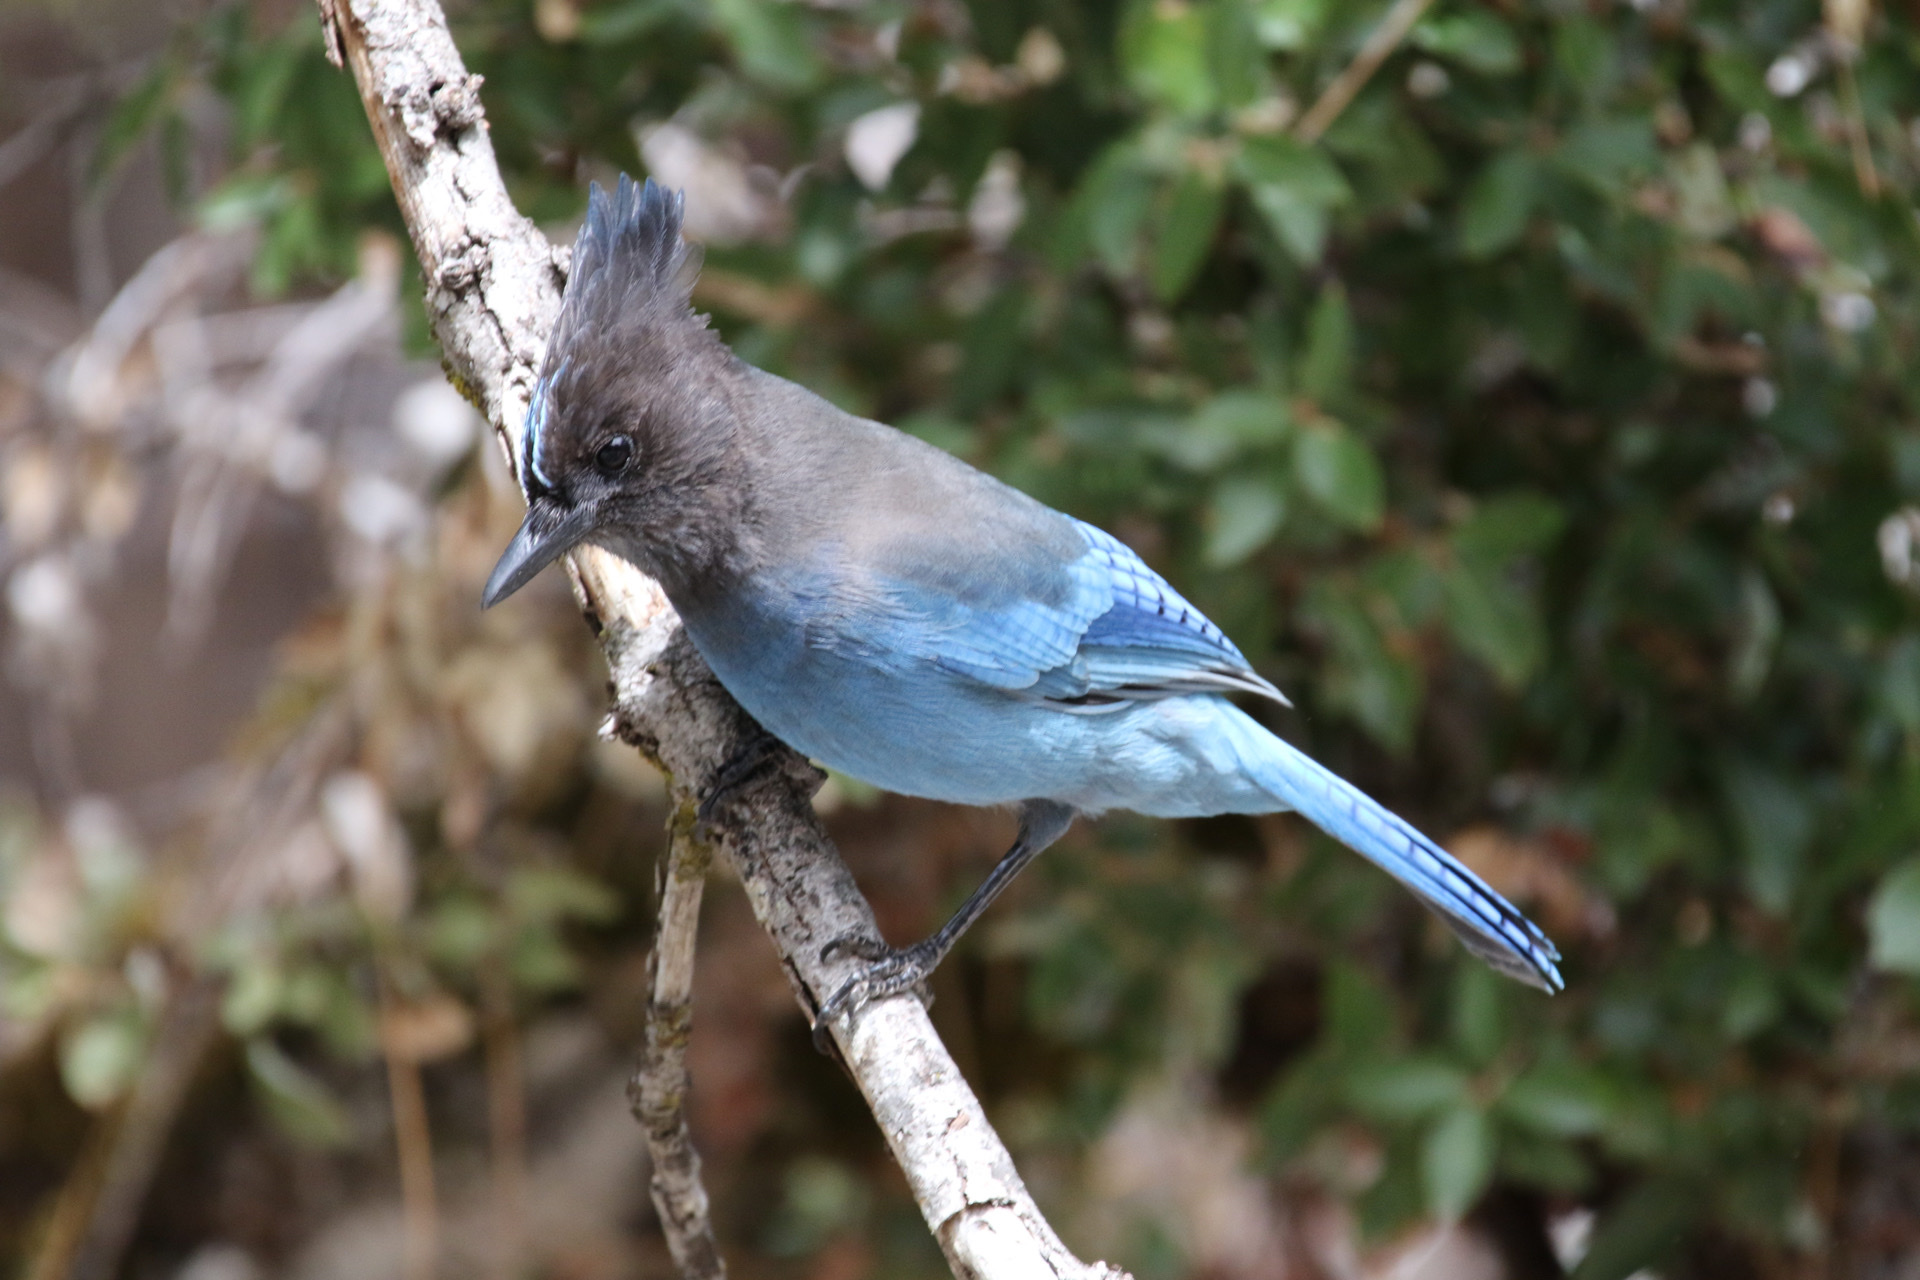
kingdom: Animalia
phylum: Chordata
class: Aves
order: Passeriformes
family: Corvidae
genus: Cyanocitta
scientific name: Cyanocitta stelleri
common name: Steller's jay
